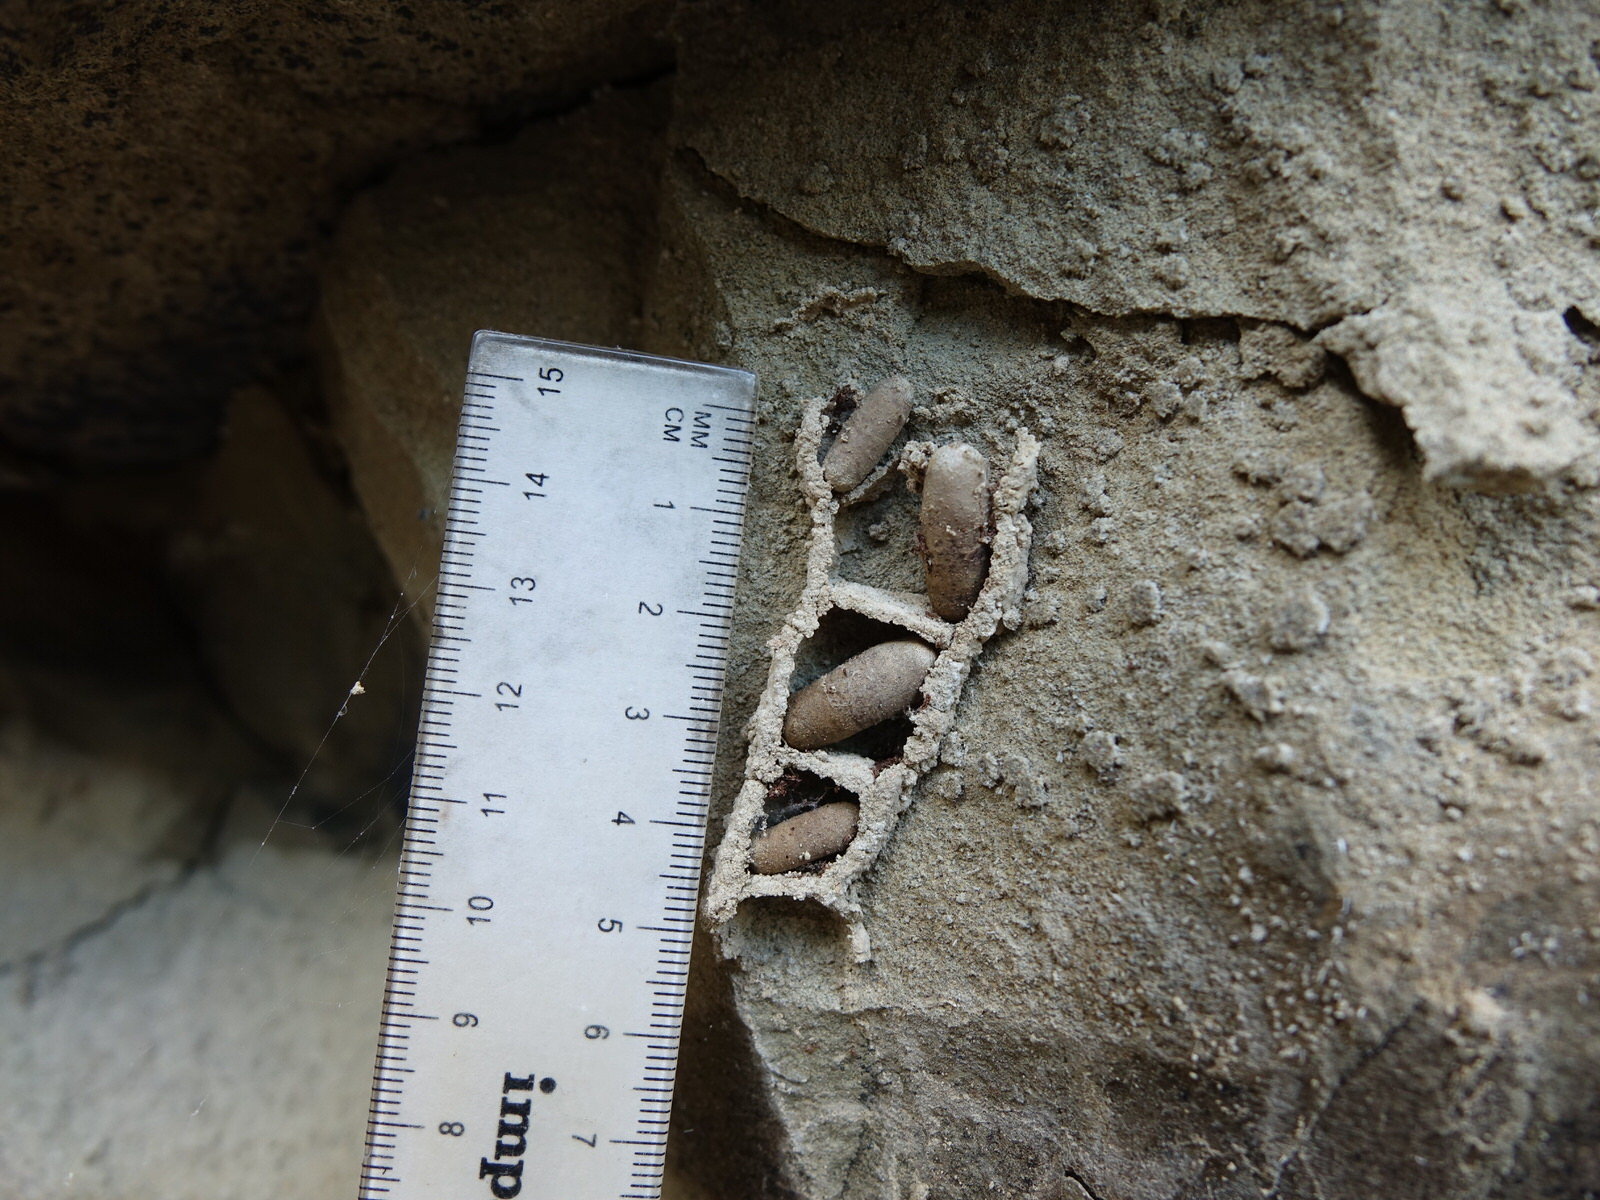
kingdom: Animalia
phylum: Arthropoda
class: Insecta
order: Hymenoptera
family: Crabronidae
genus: Pison
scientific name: Pison spinolae
